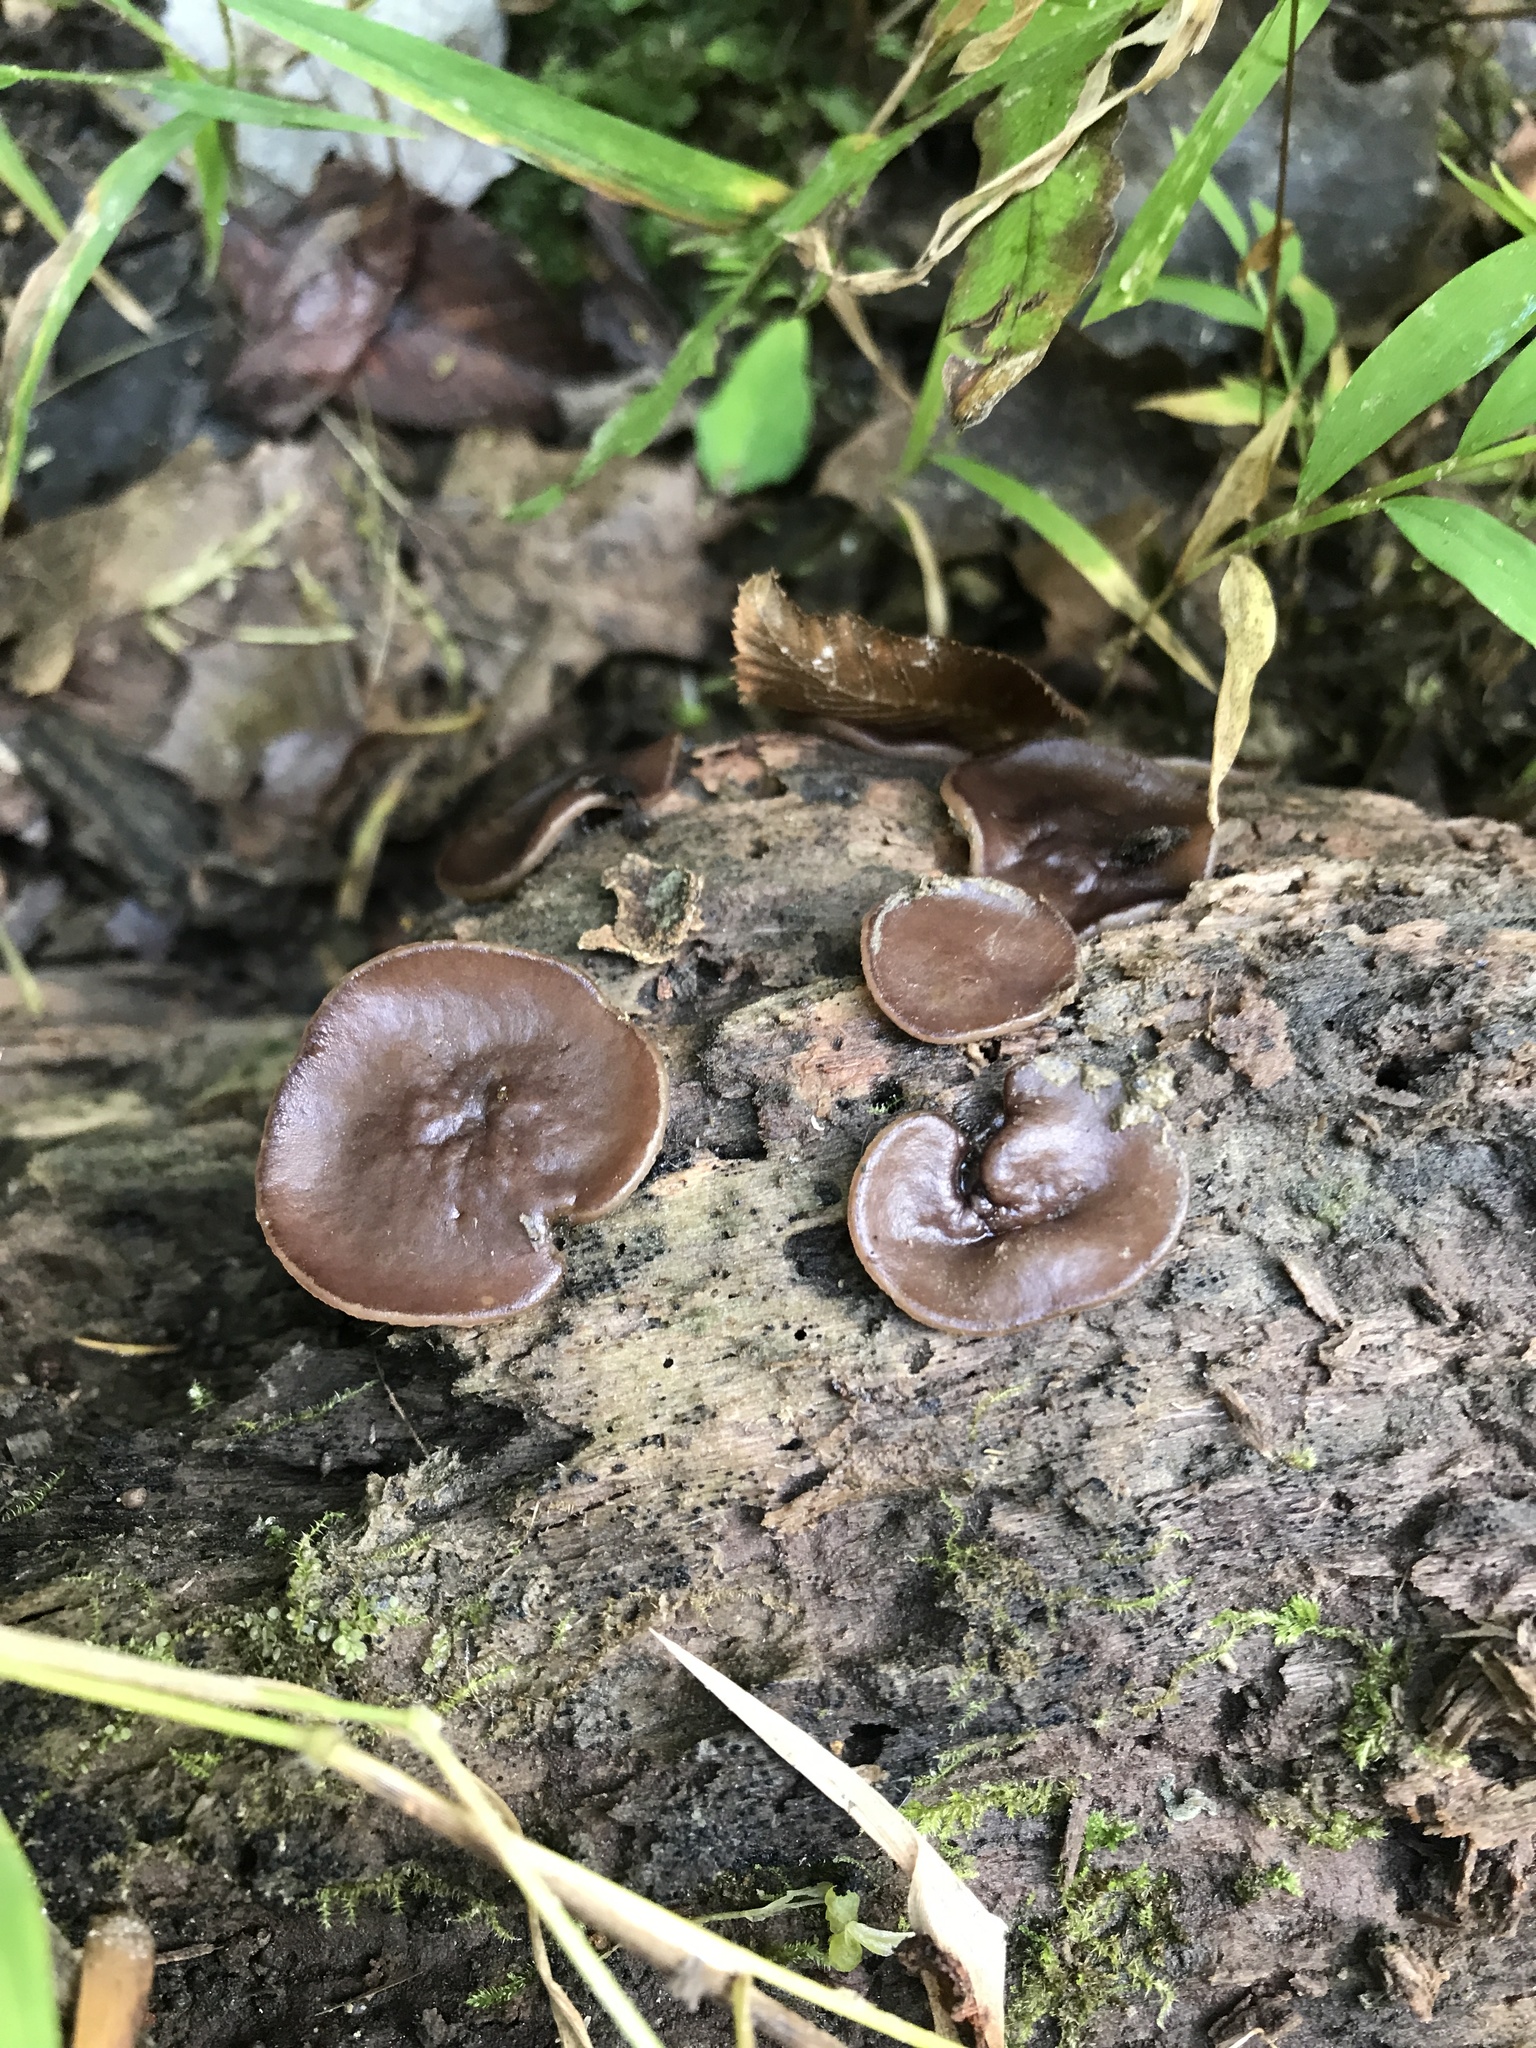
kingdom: Fungi
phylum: Ascomycota
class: Pezizomycetes
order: Pezizales
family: Pezizaceae
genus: Pachyella
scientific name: Pachyella clypeata
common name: Copper penny fungus
